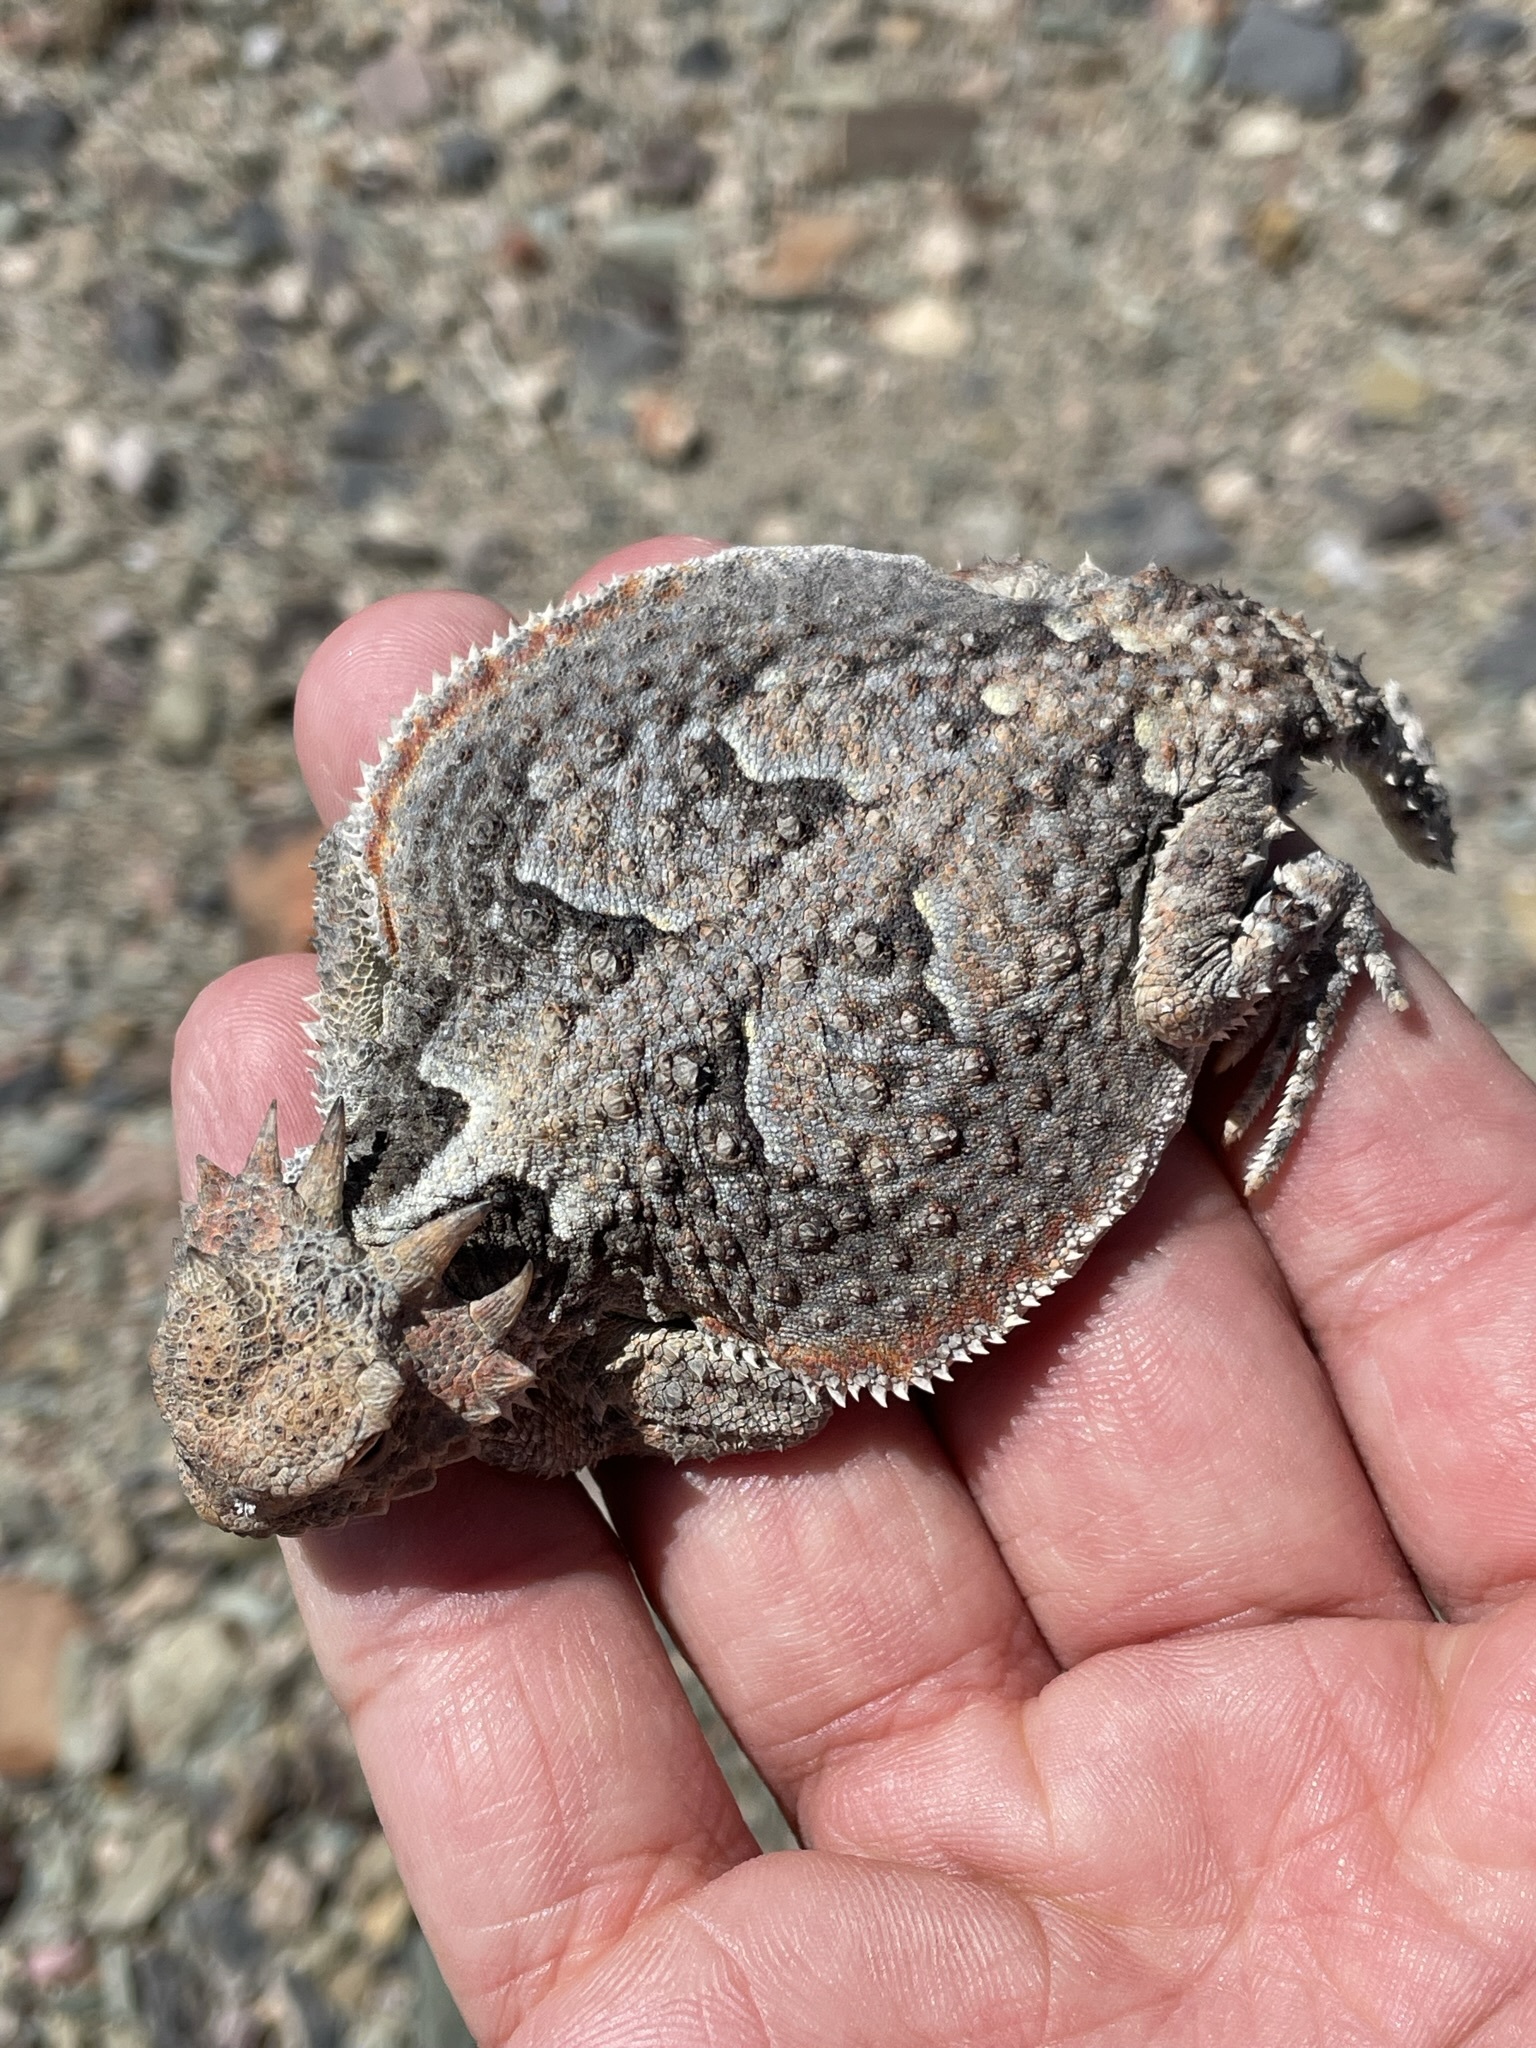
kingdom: Animalia
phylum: Chordata
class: Squamata
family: Phrynosomatidae
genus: Phrynosoma
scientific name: Phrynosoma platyrhinos
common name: Desert horned lizard
